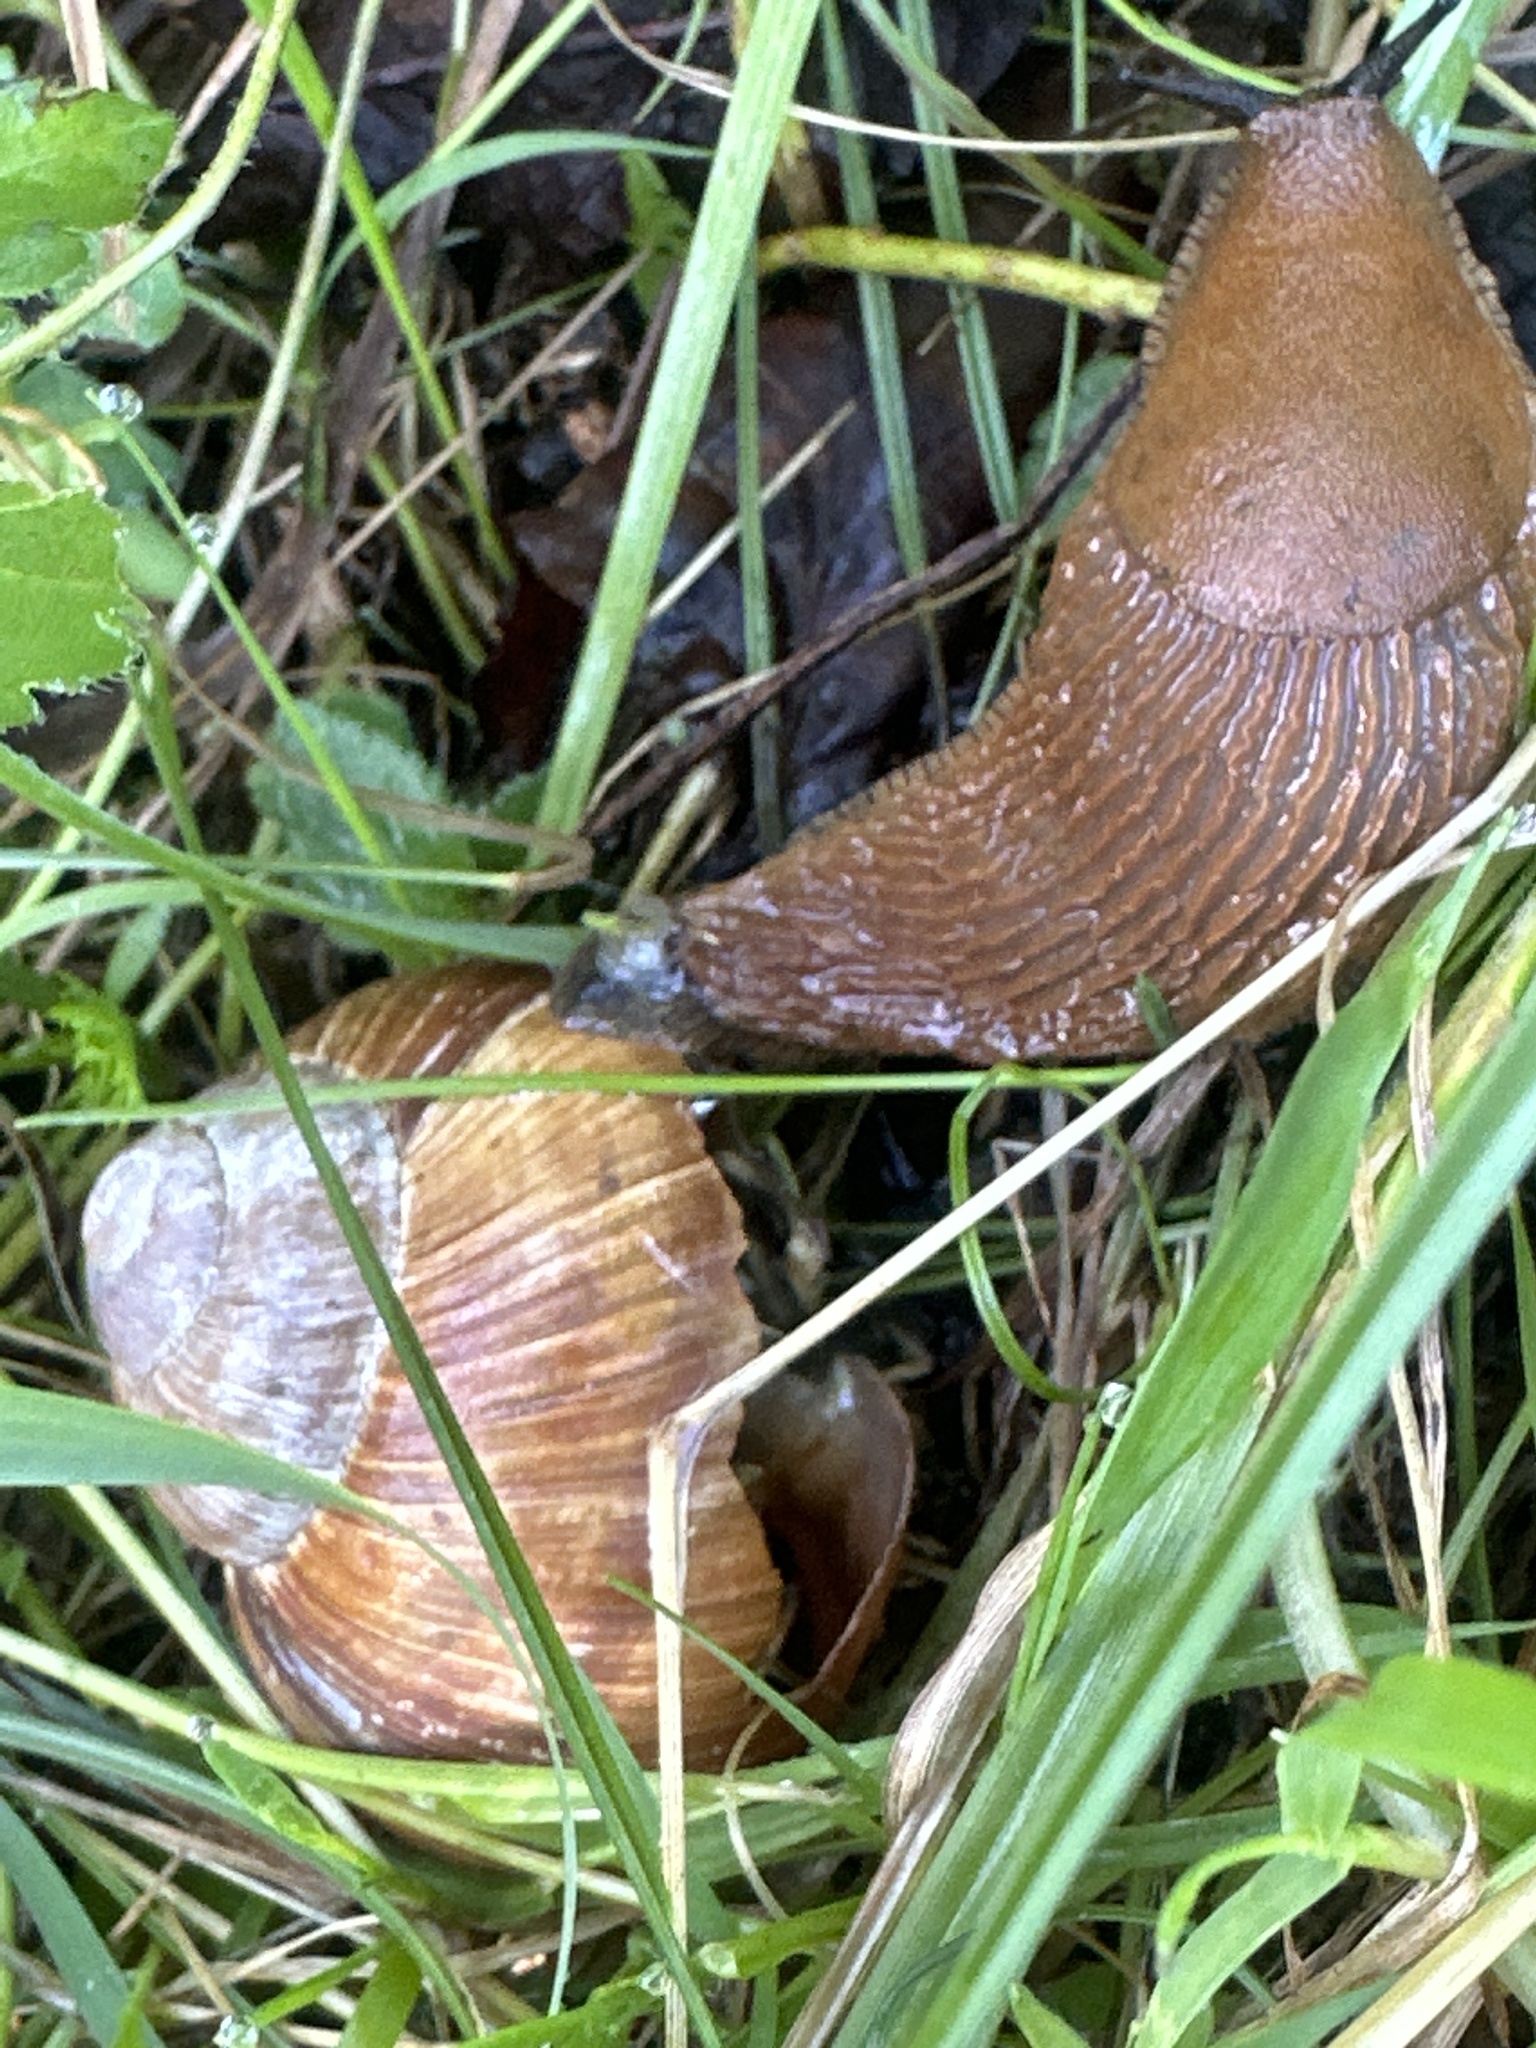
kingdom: Animalia
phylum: Mollusca
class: Gastropoda
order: Stylommatophora
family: Helicidae
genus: Helix
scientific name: Helix pomatia
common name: Roman snail
